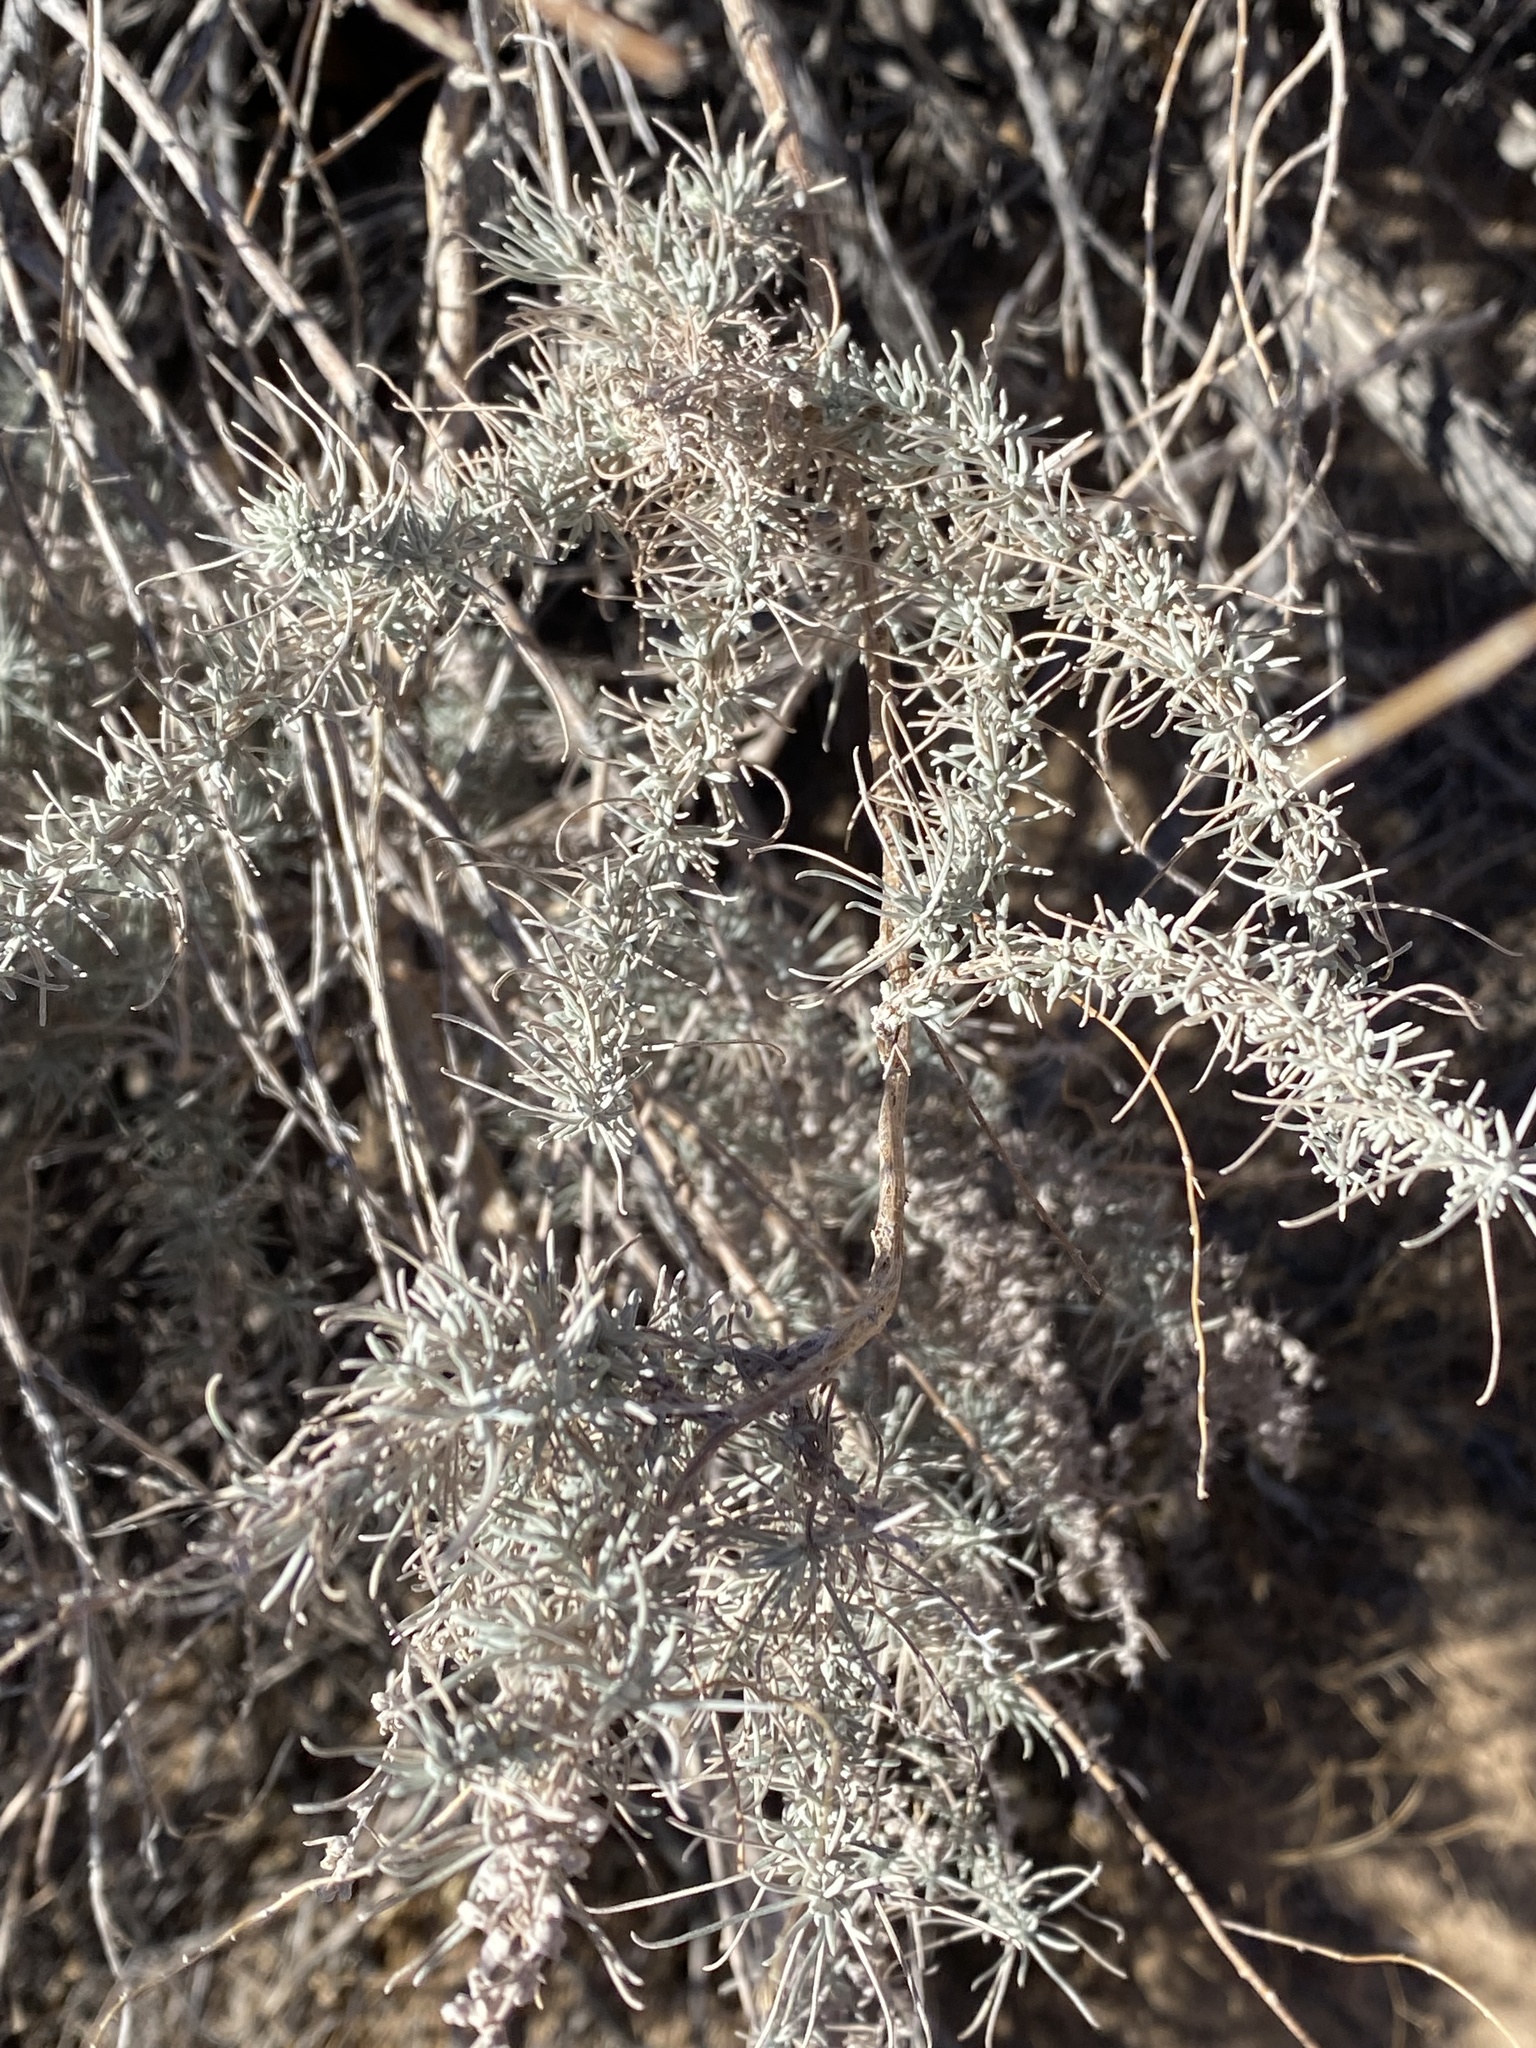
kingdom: Animalia
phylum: Arthropoda
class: Insecta
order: Diptera
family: Tephritidae
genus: Eutreta
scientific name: Eutreta diana
